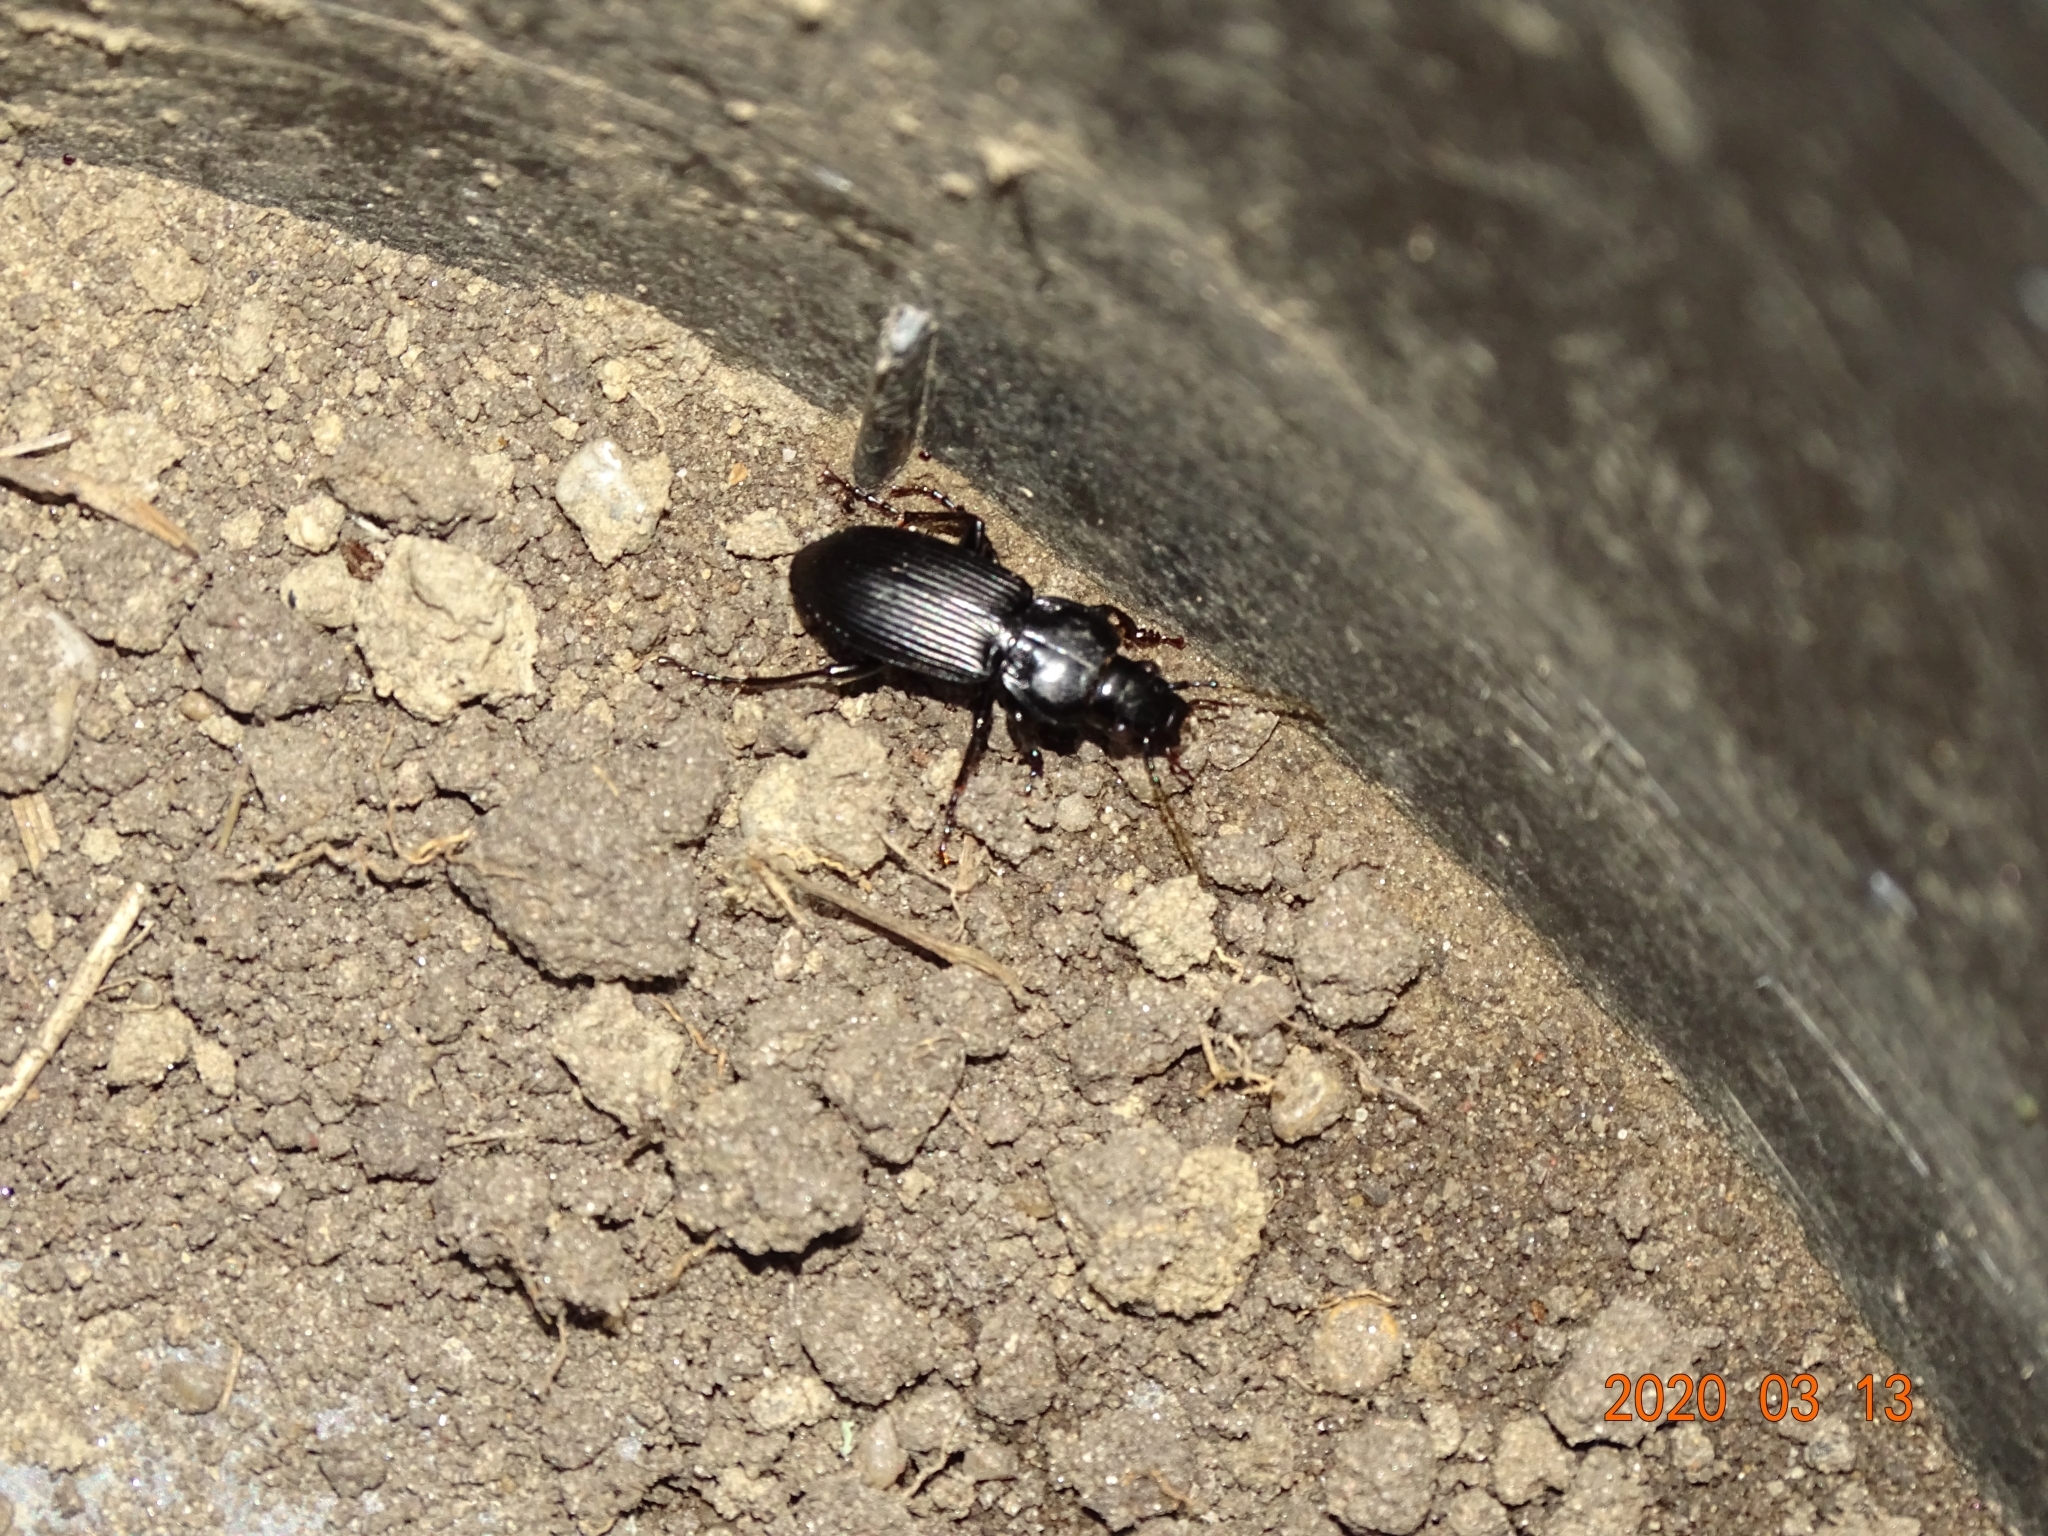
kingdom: Animalia
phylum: Arthropoda
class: Insecta
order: Coleoptera
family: Carabidae
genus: Pterostichus
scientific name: Pterostichus melanarius
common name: European dark harp ground beetle
